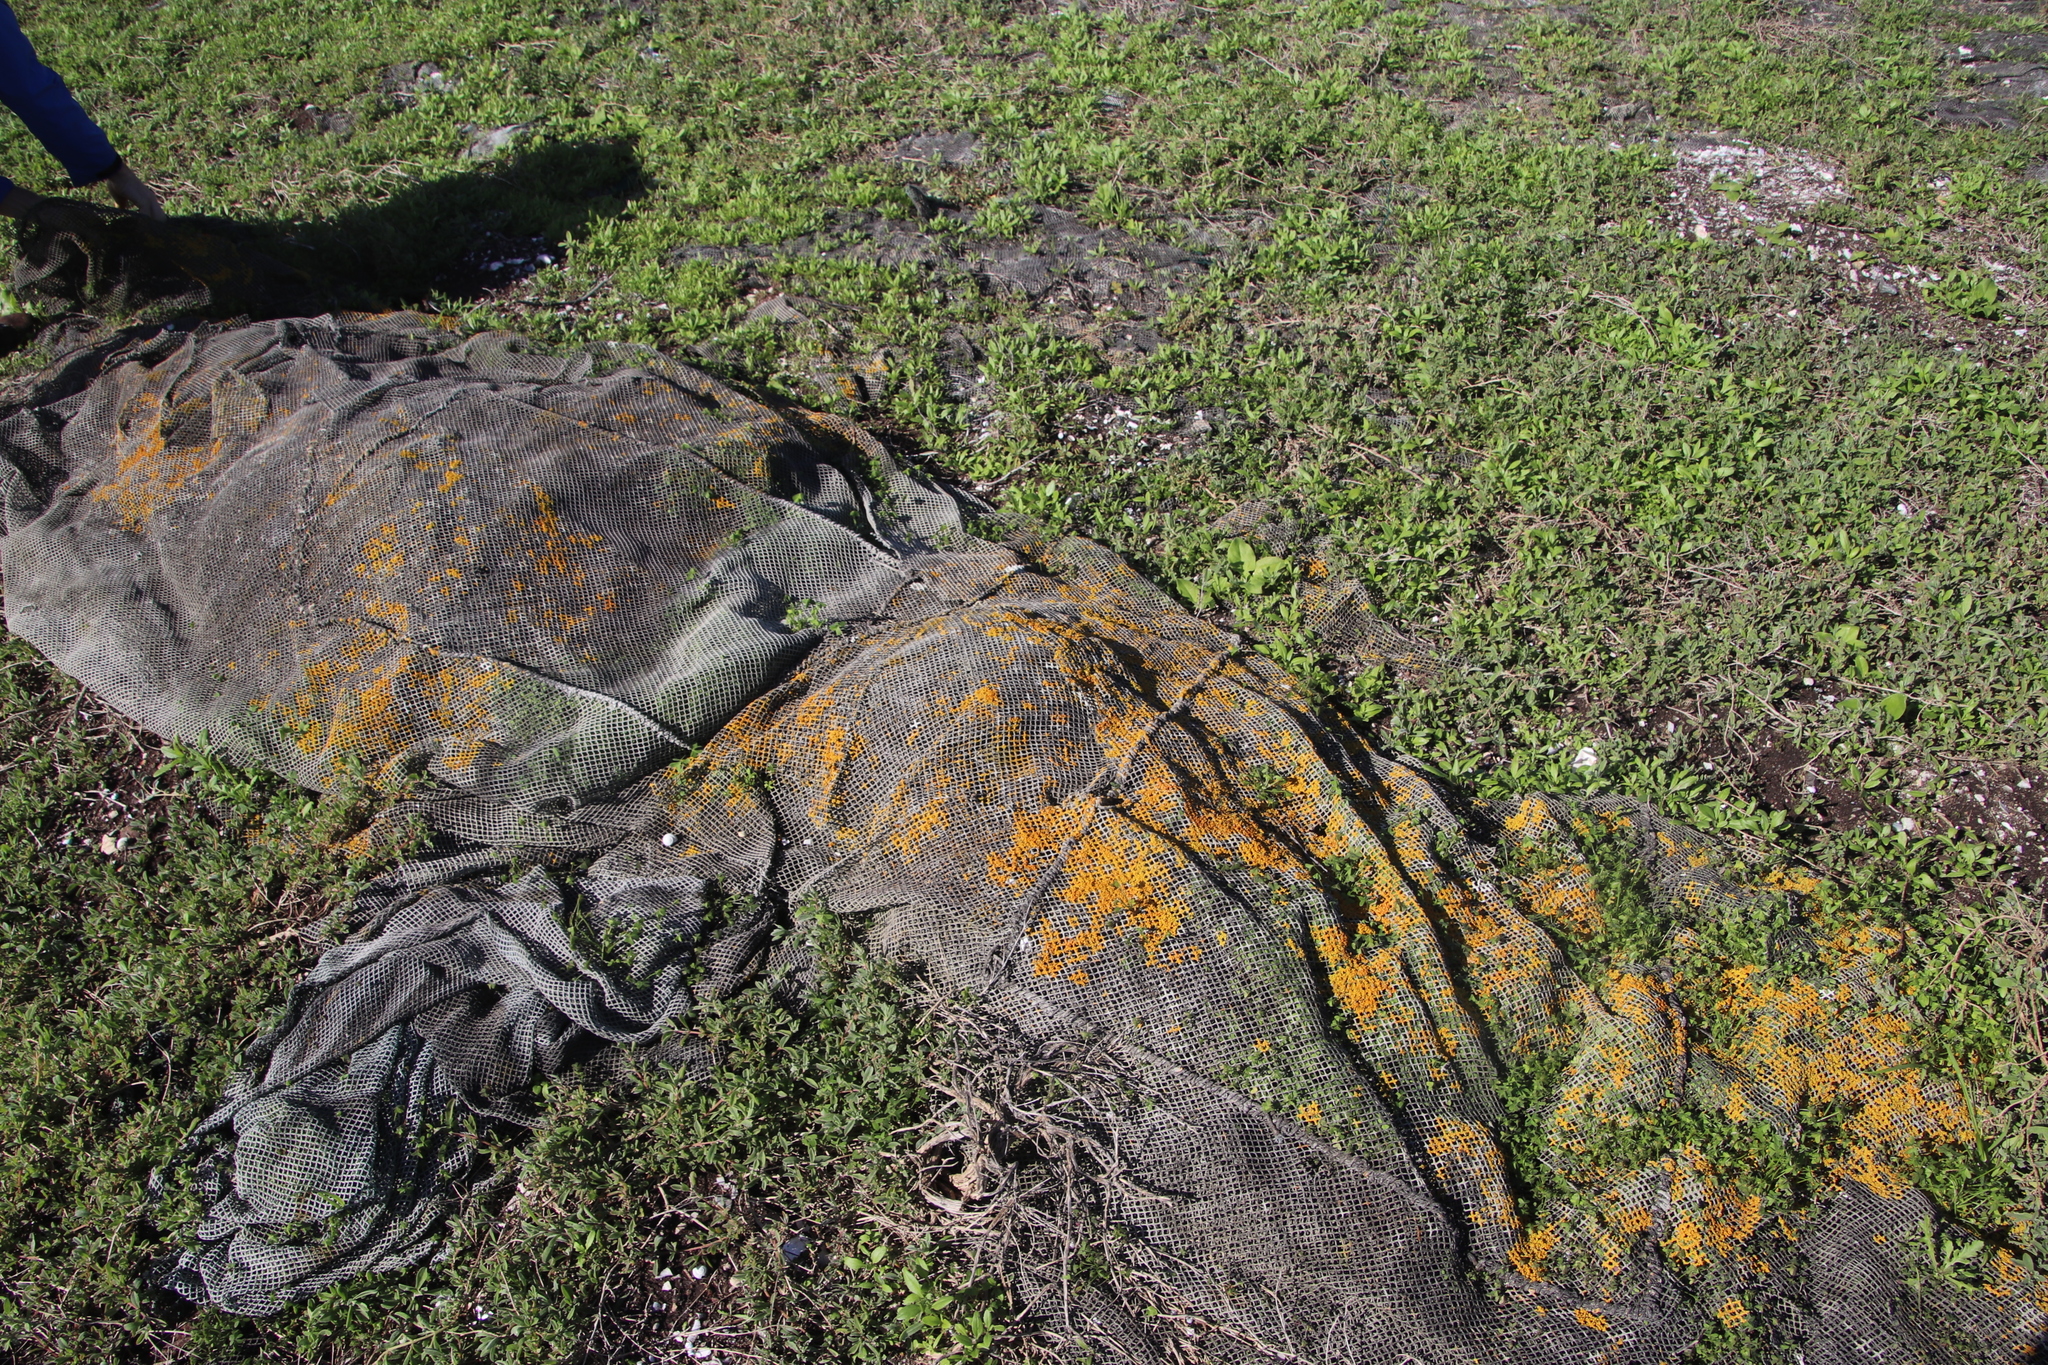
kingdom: Fungi
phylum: Ascomycota
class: Lecanoromycetes
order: Teloschistales
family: Teloschistaceae
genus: Xanthoria
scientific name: Xanthoria parietina
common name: Common orange lichen
